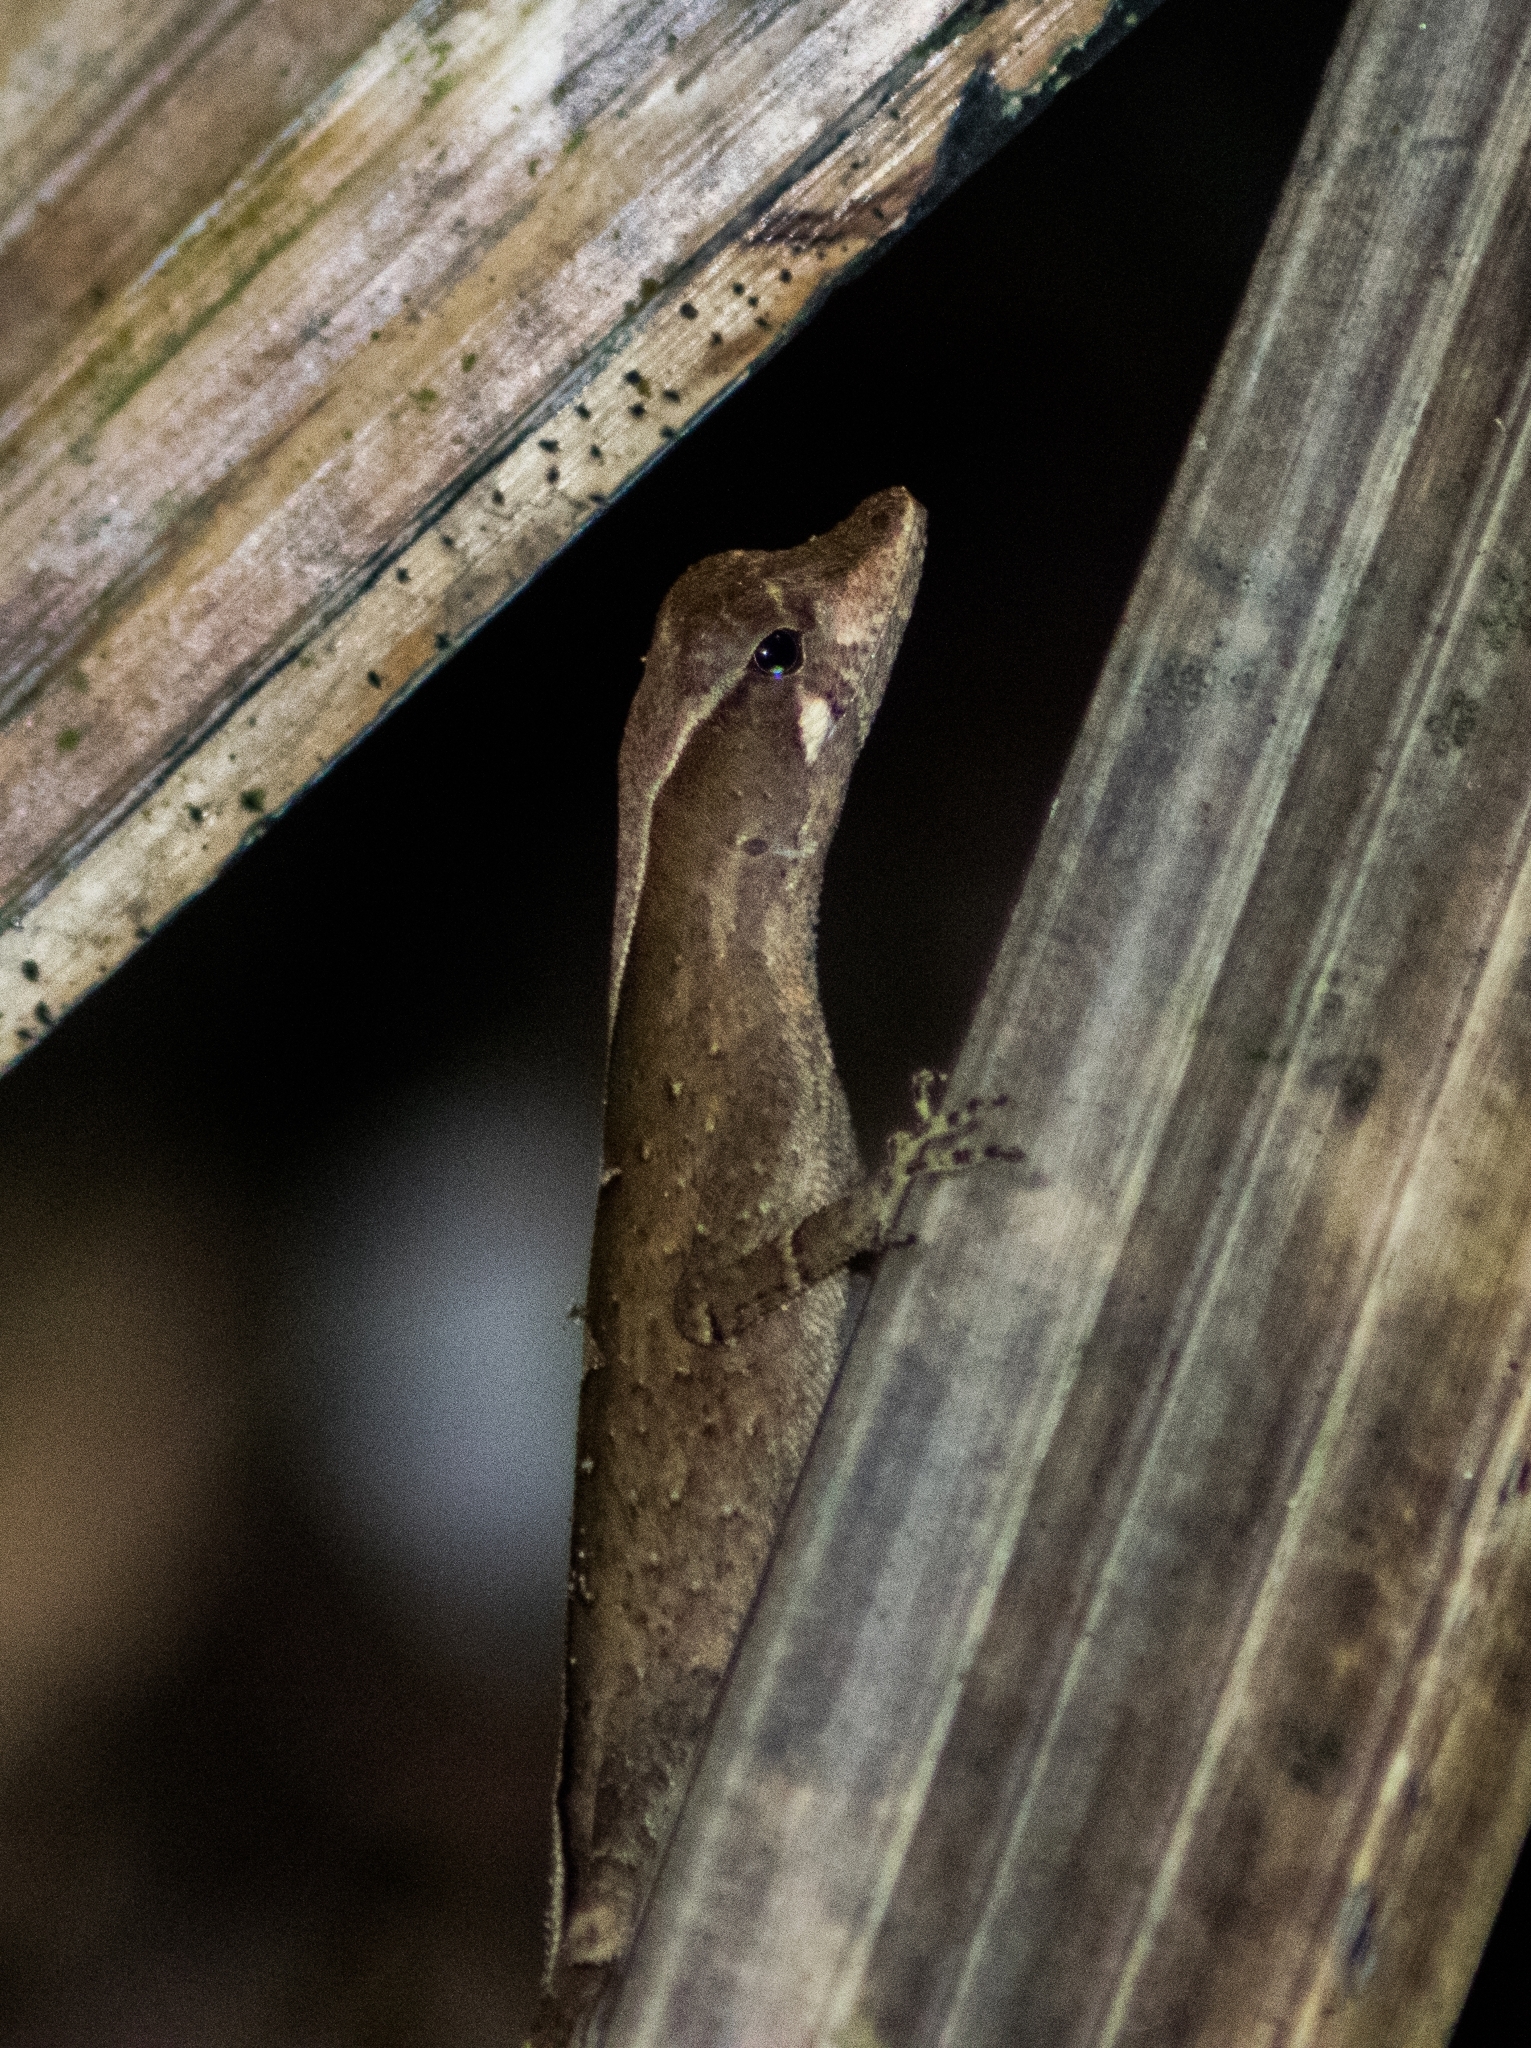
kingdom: Animalia
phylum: Chordata
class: Squamata
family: Dactyloidae
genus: Anolis
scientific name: Anolis chrysolepis
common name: Goldenscale anole
